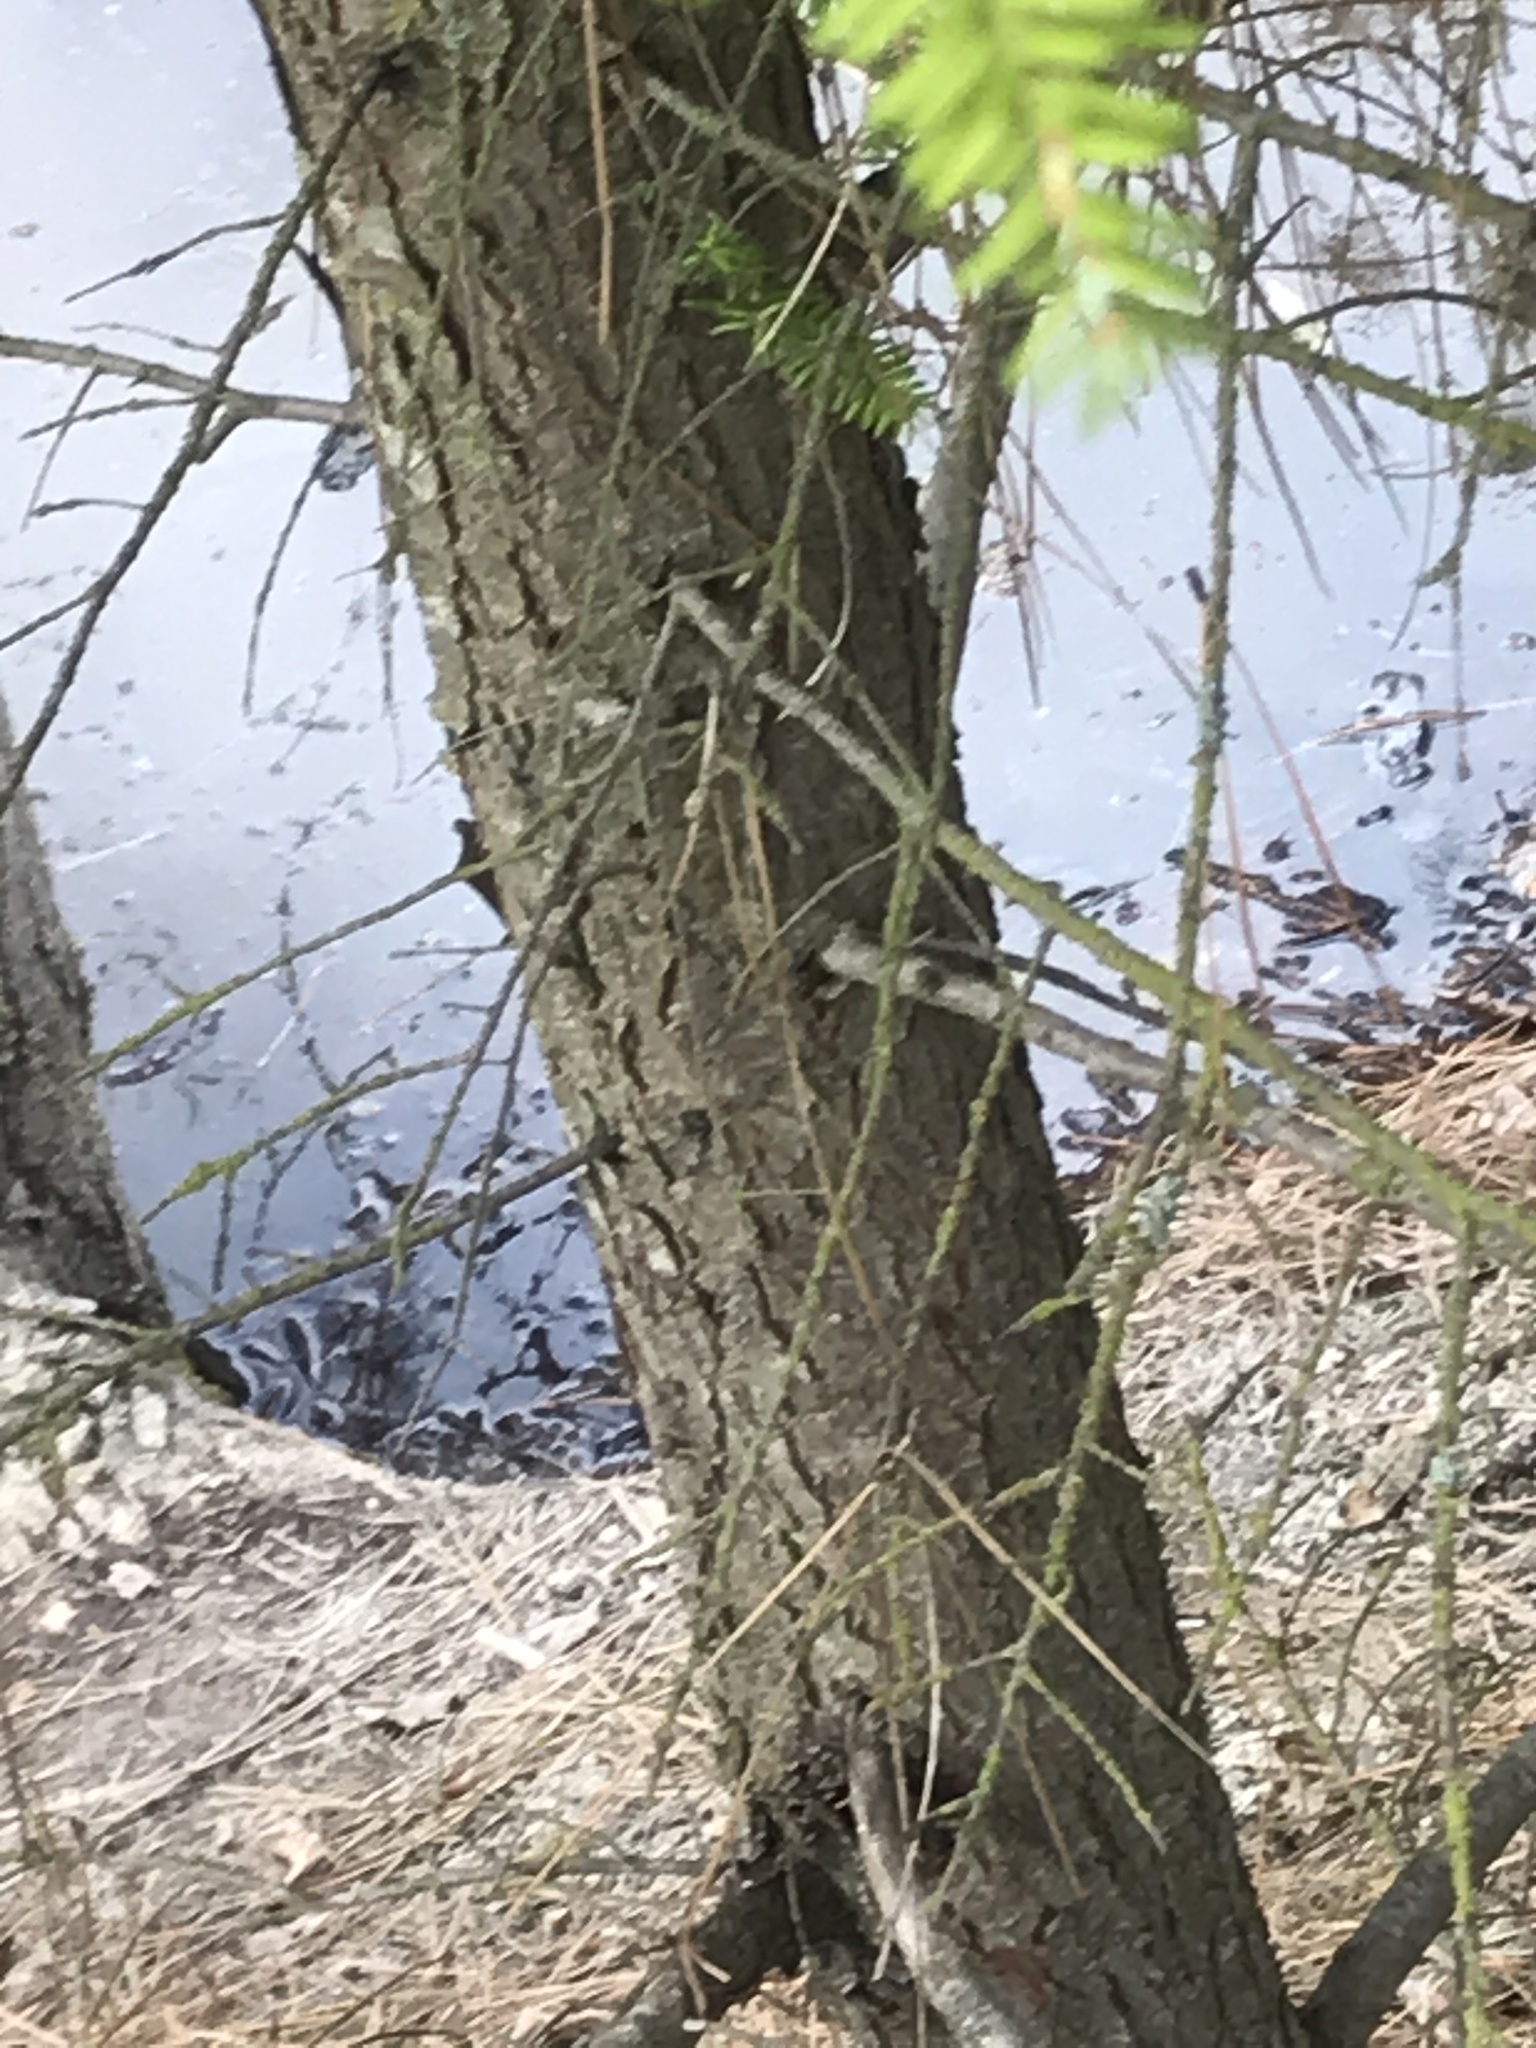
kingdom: Plantae
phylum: Tracheophyta
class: Pinopsida
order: Pinales
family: Pinaceae
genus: Tsuga
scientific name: Tsuga heterophylla
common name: Western hemlock
